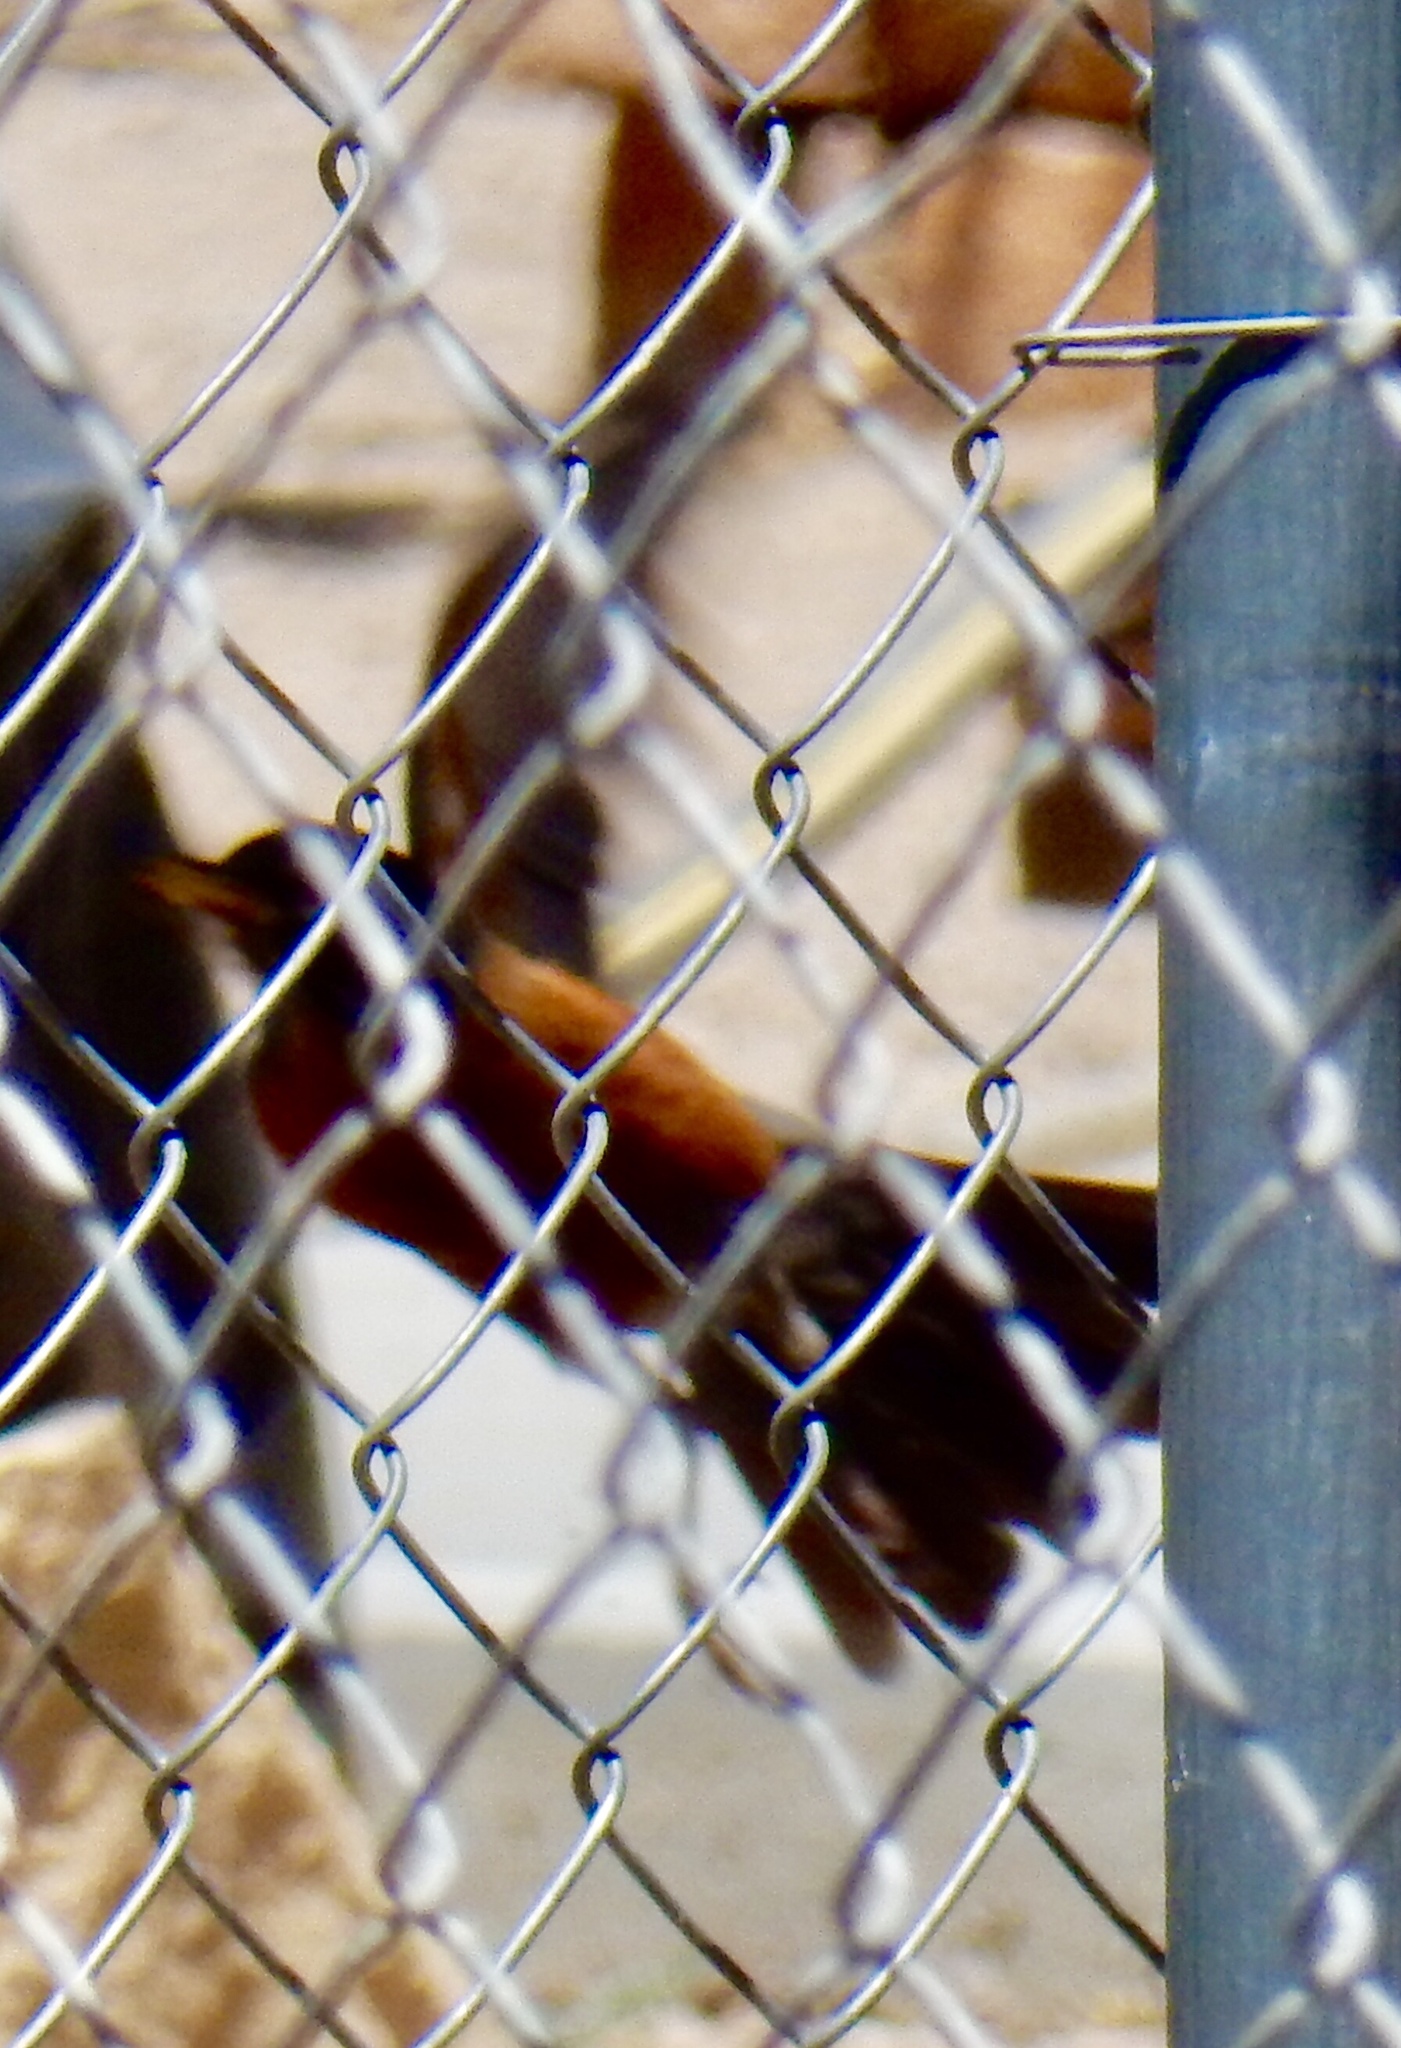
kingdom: Animalia
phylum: Chordata
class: Aves
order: Passeriformes
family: Turdidae
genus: Turdus
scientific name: Turdus migratorius
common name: American robin
